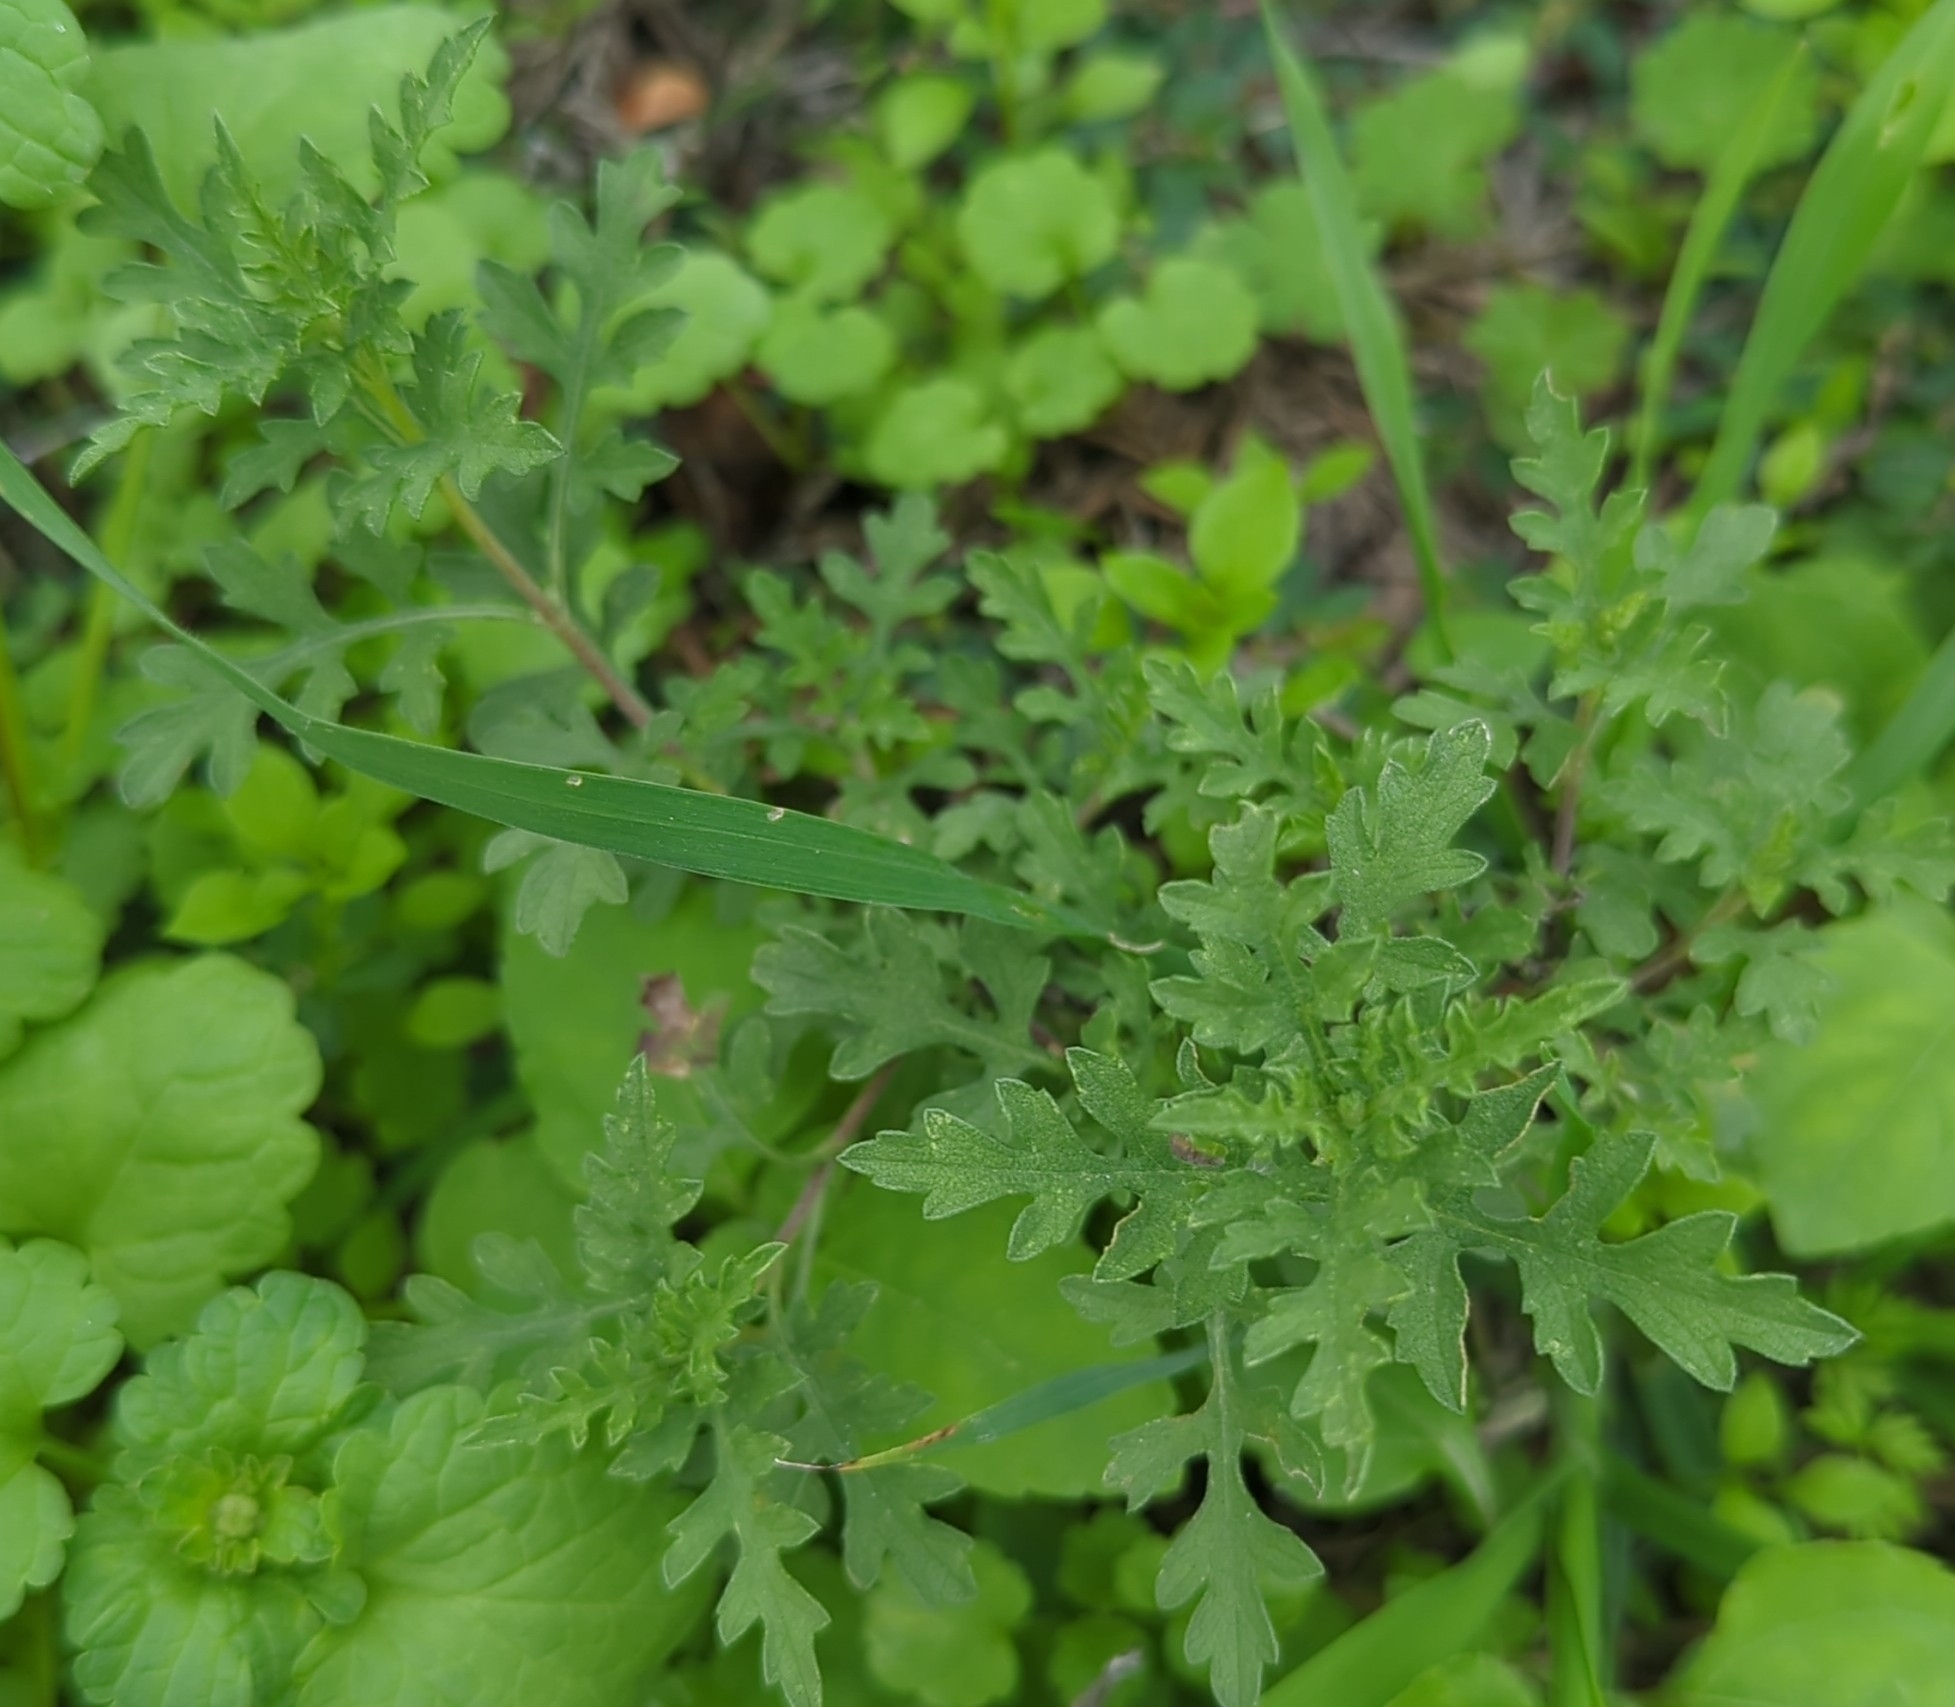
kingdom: Plantae
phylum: Tracheophyta
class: Magnoliopsida
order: Asterales
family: Asteraceae
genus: Ambrosia
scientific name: Ambrosia psilostachya
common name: Perennial ragweed
